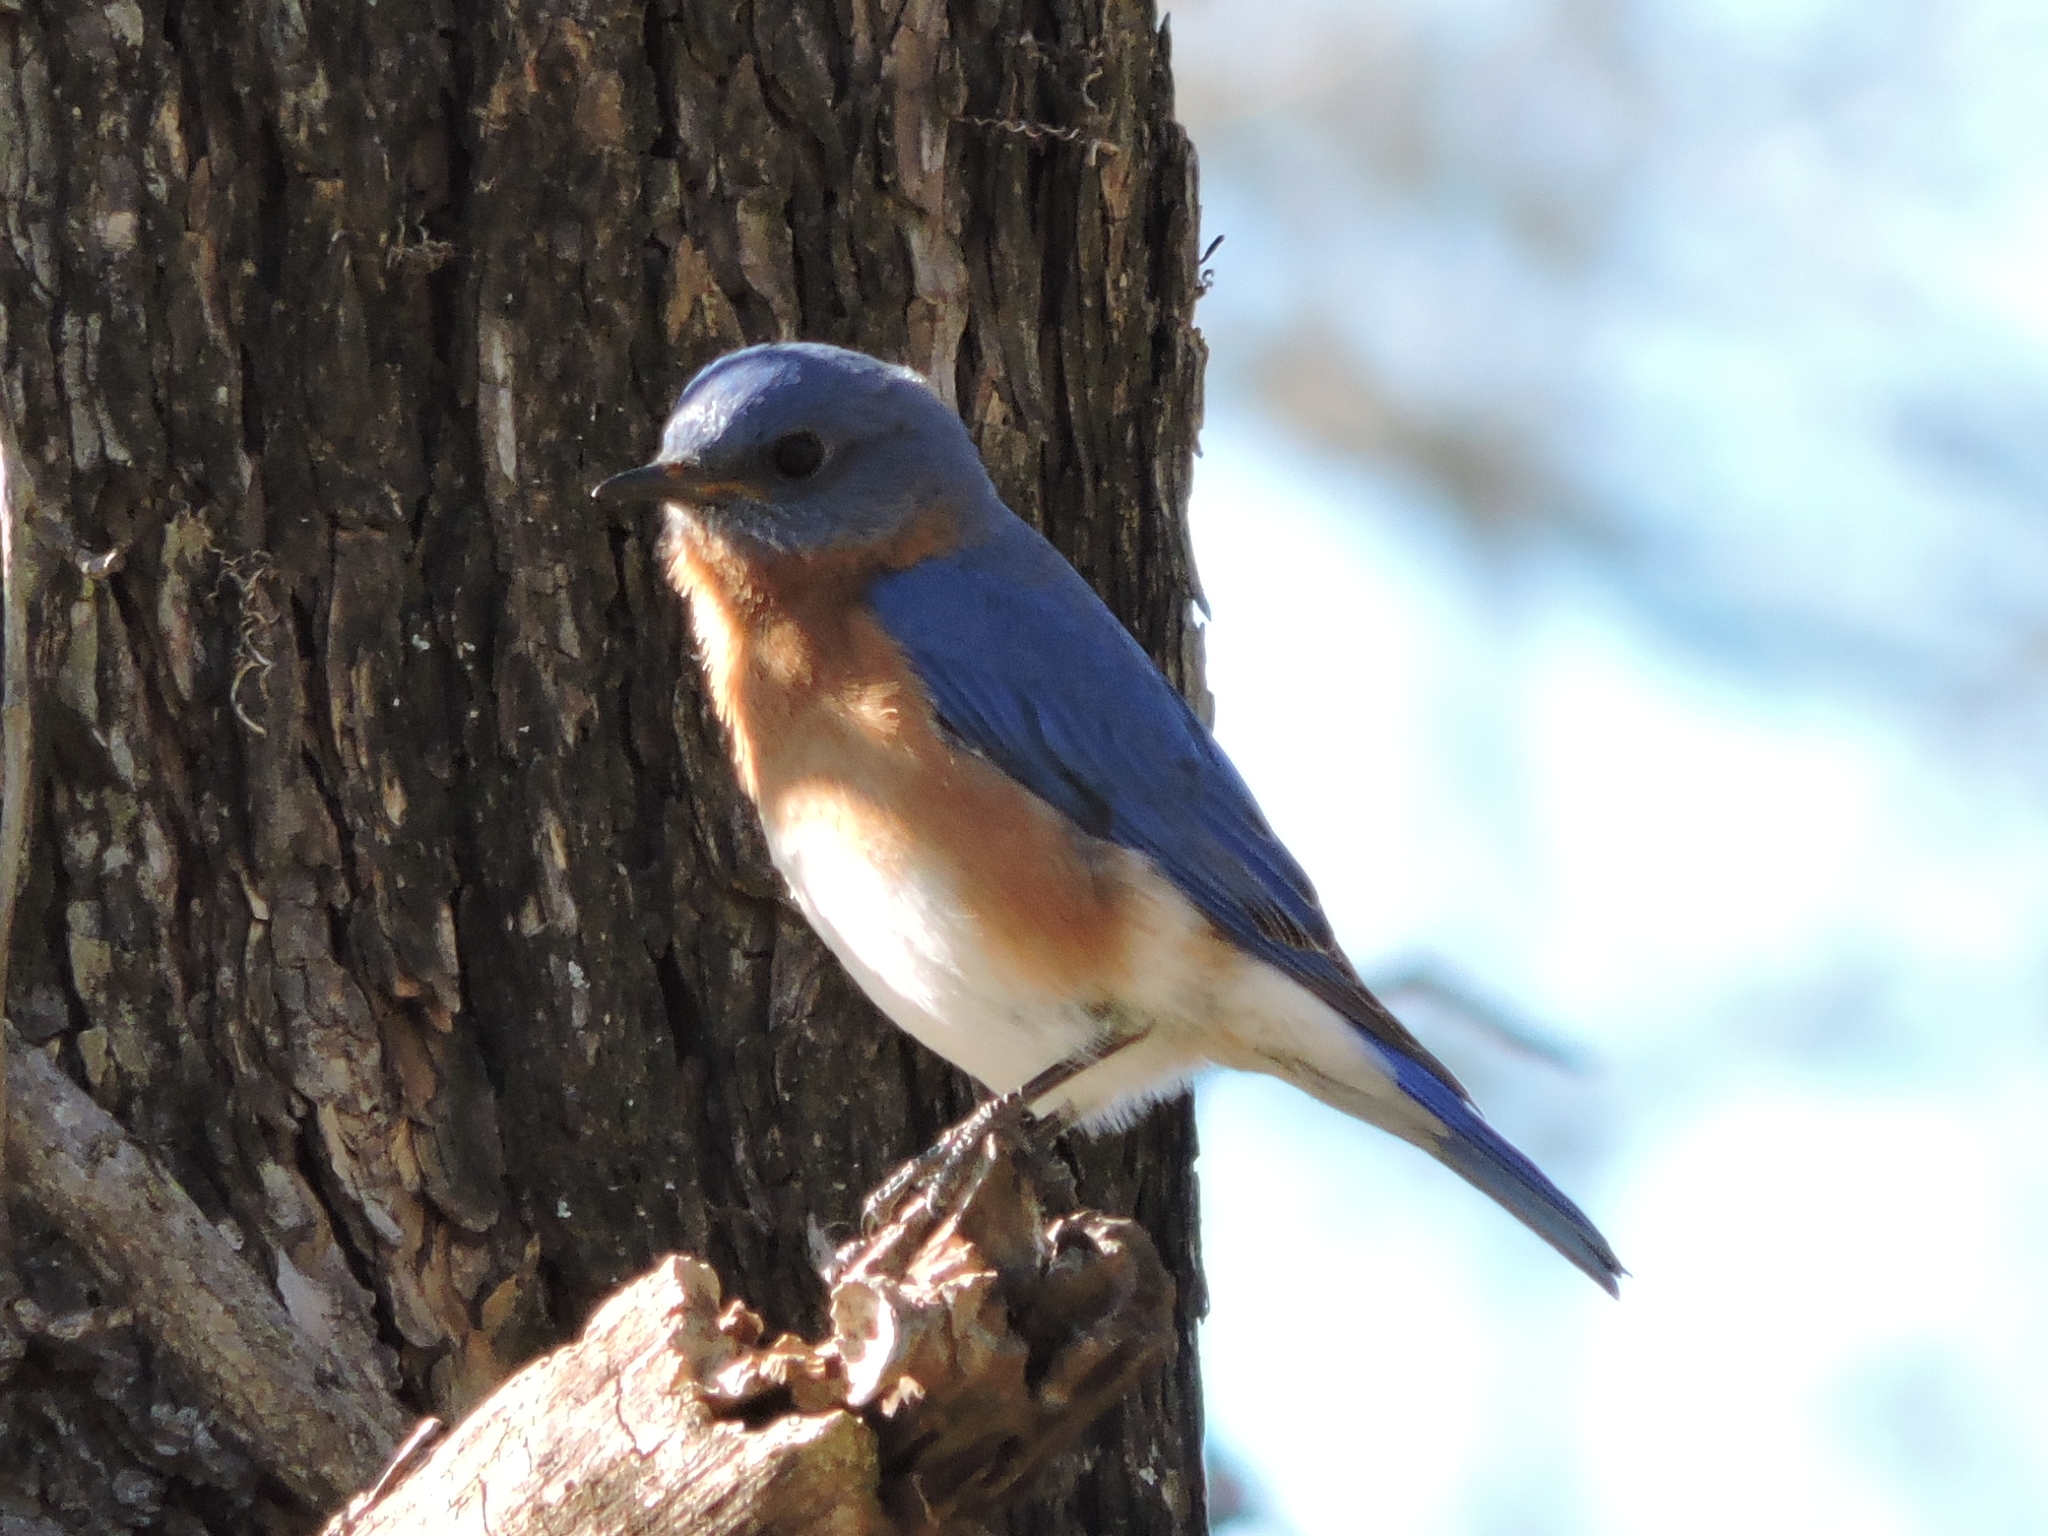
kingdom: Animalia
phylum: Chordata
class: Aves
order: Passeriformes
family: Turdidae
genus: Sialia
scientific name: Sialia sialis
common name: Eastern bluebird
